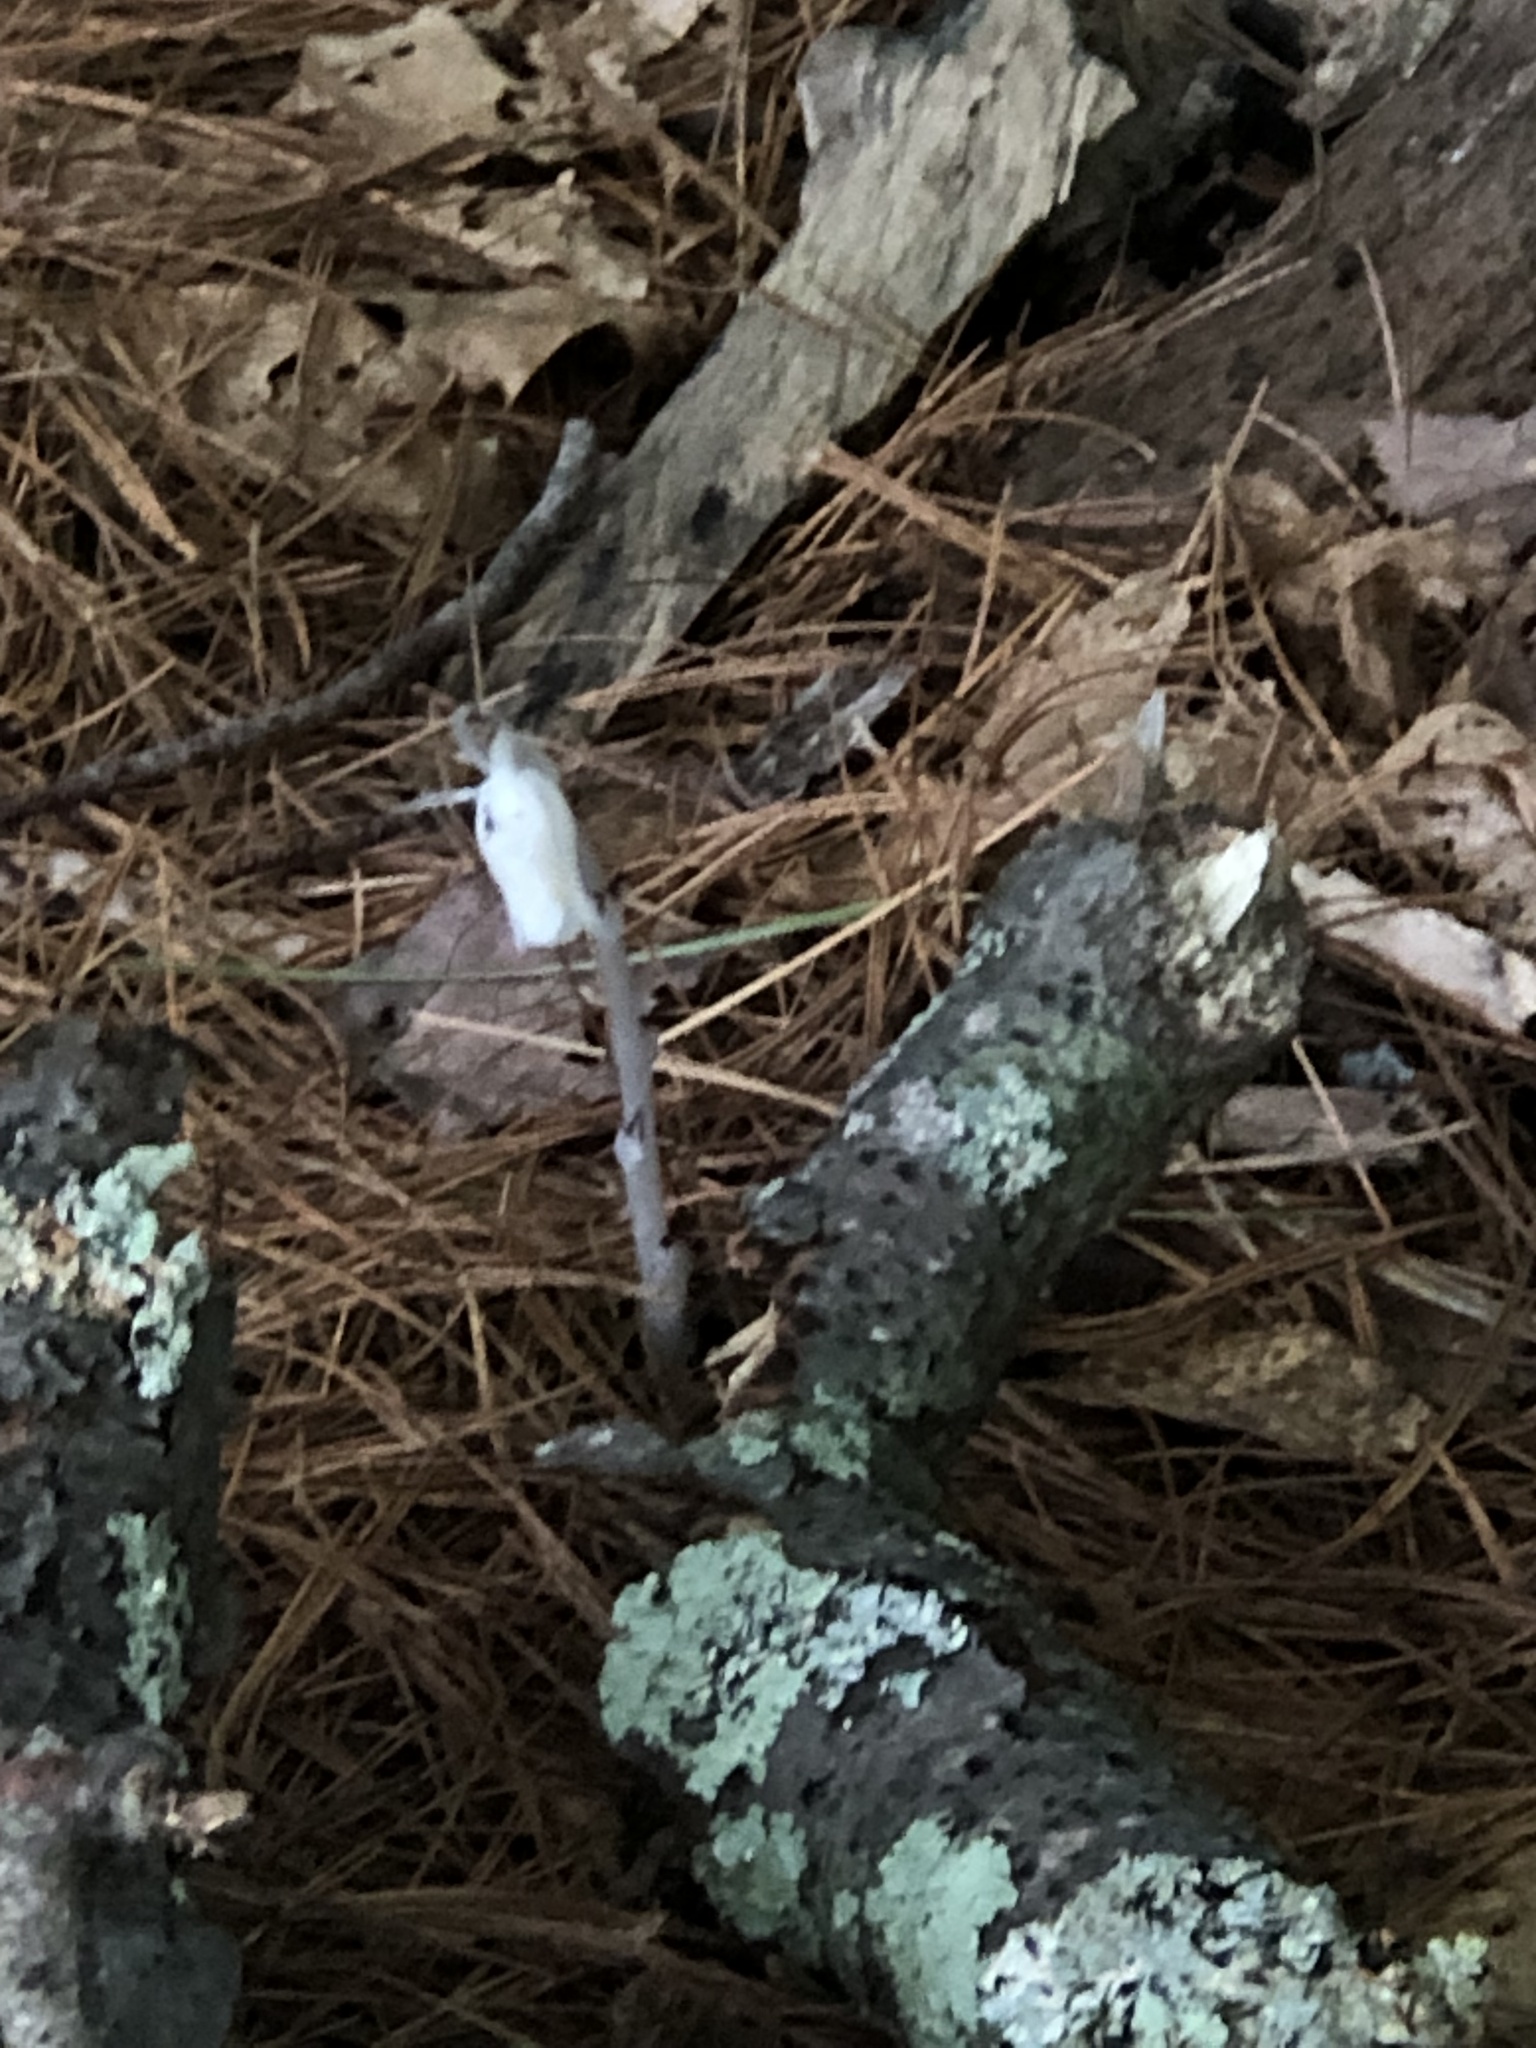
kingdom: Plantae
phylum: Tracheophyta
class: Magnoliopsida
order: Ericales
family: Ericaceae
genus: Monotropa
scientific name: Monotropa uniflora
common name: Convulsion root
